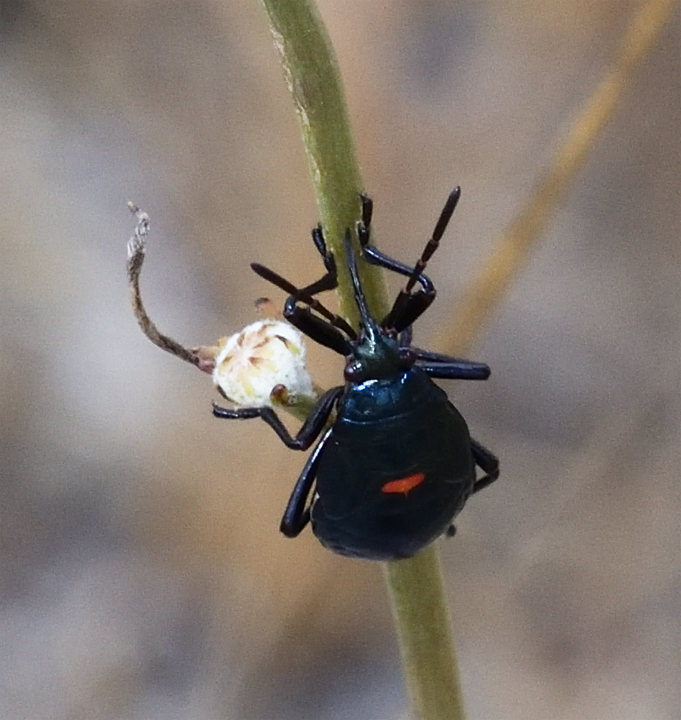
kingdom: Animalia
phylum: Arthropoda
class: Insecta
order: Hemiptera
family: Largidae
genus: Largus
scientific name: Largus californicus
